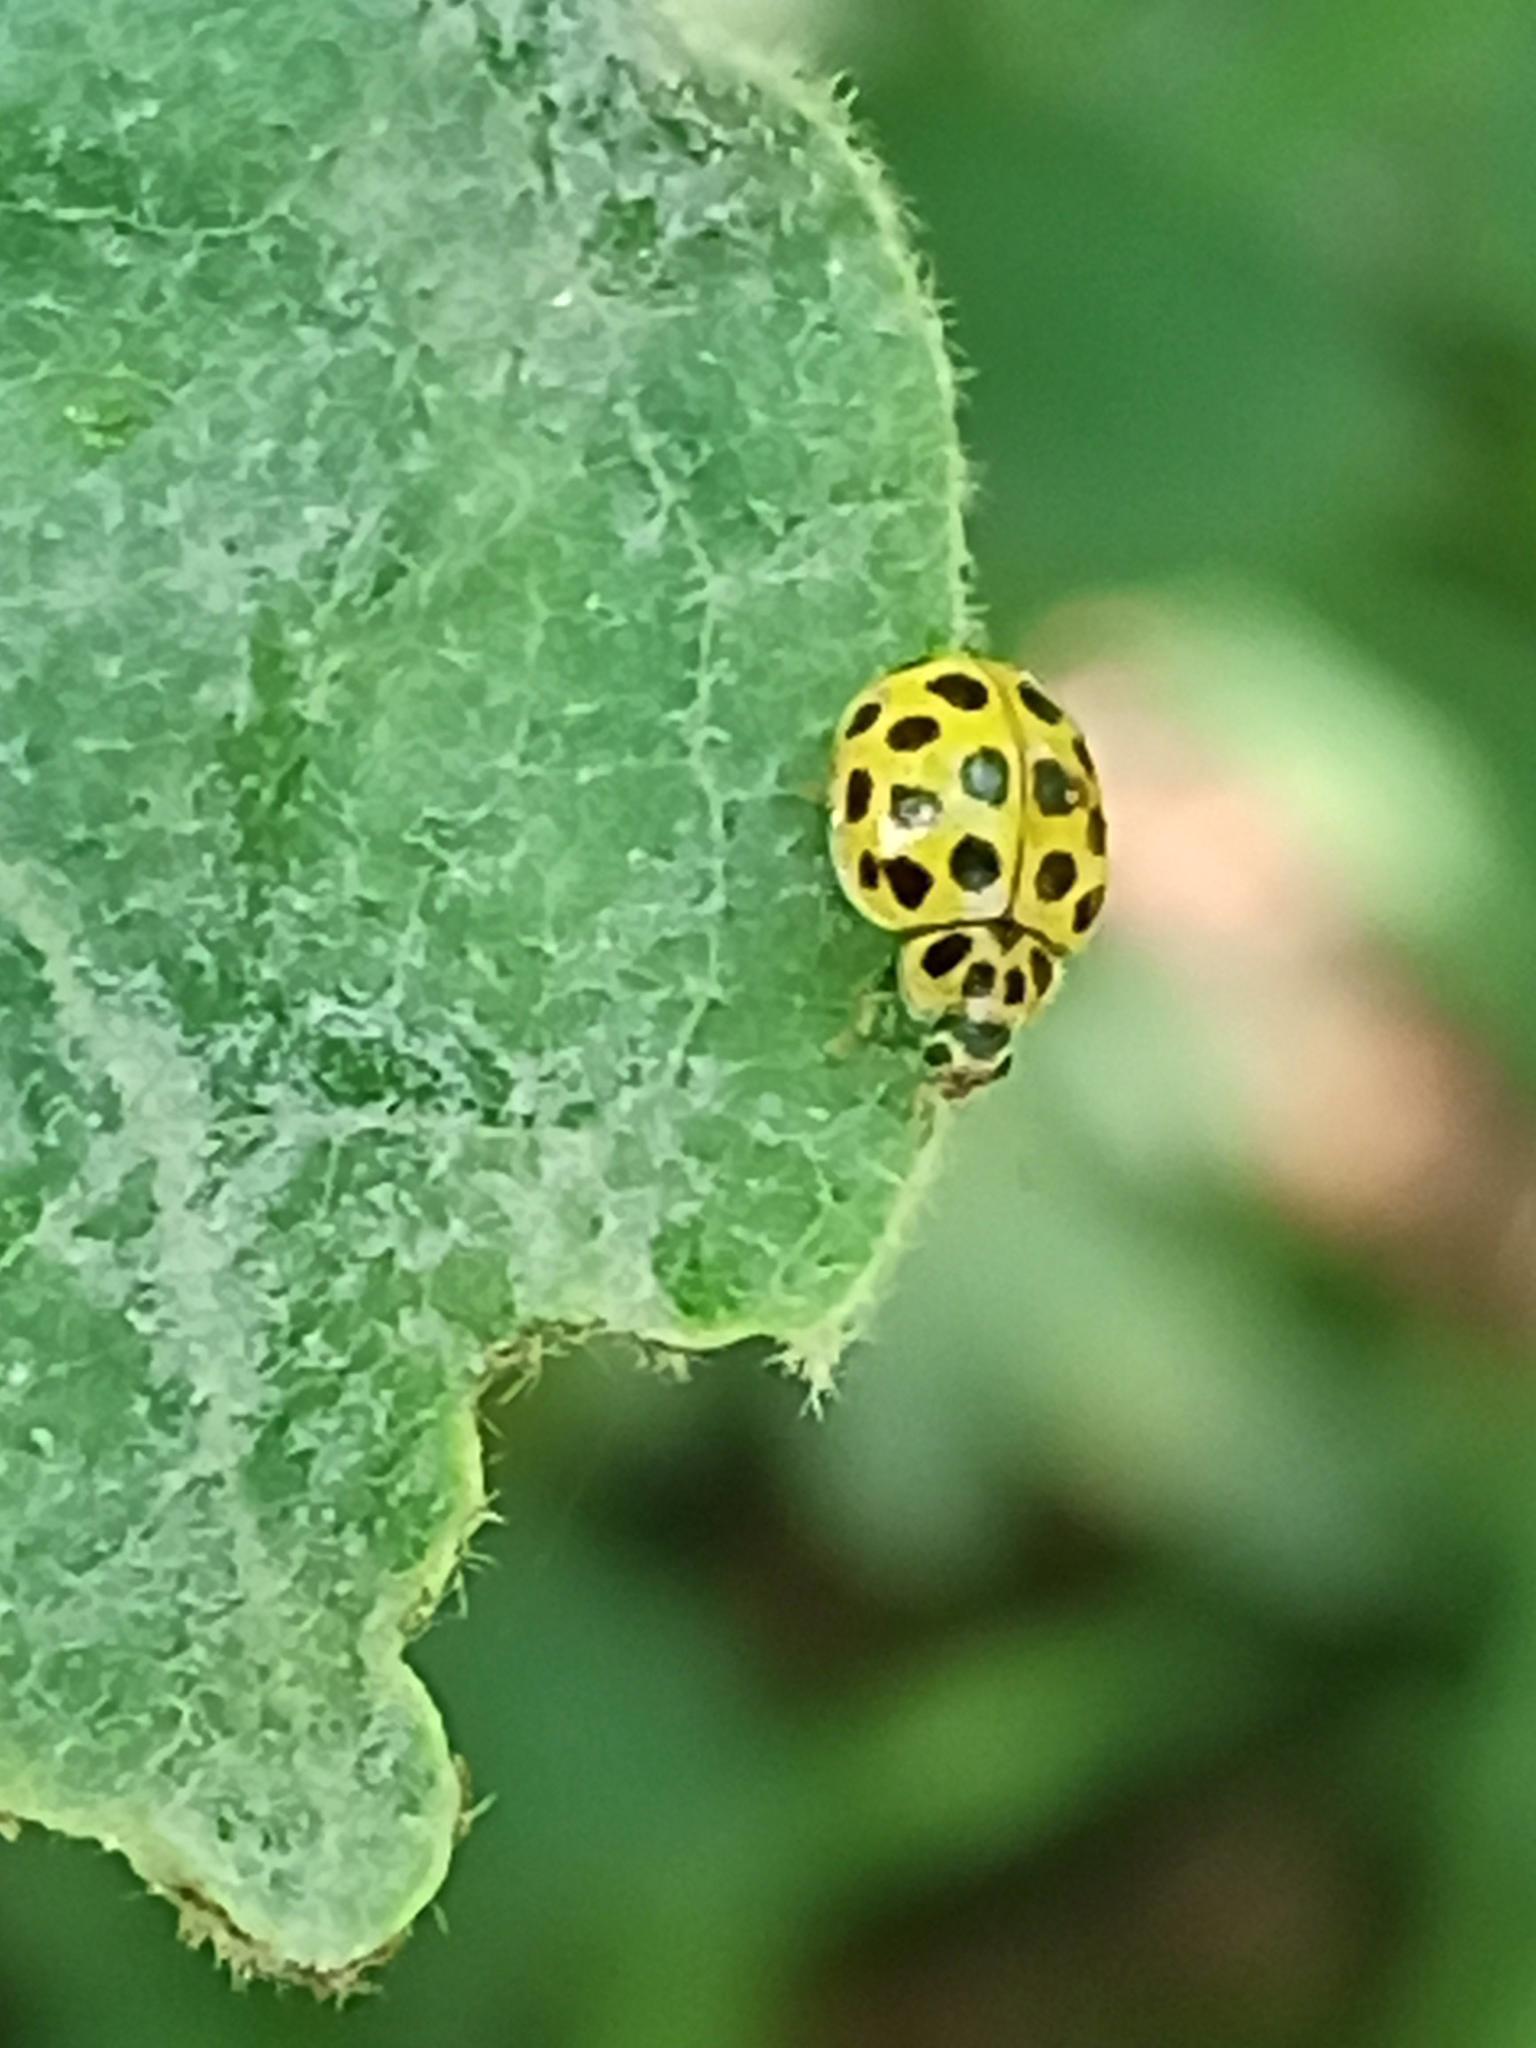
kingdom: Animalia
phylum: Arthropoda
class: Insecta
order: Coleoptera
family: Coccinellidae
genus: Psyllobora
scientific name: Psyllobora vigintiduopunctata
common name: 22-spot ladybird
